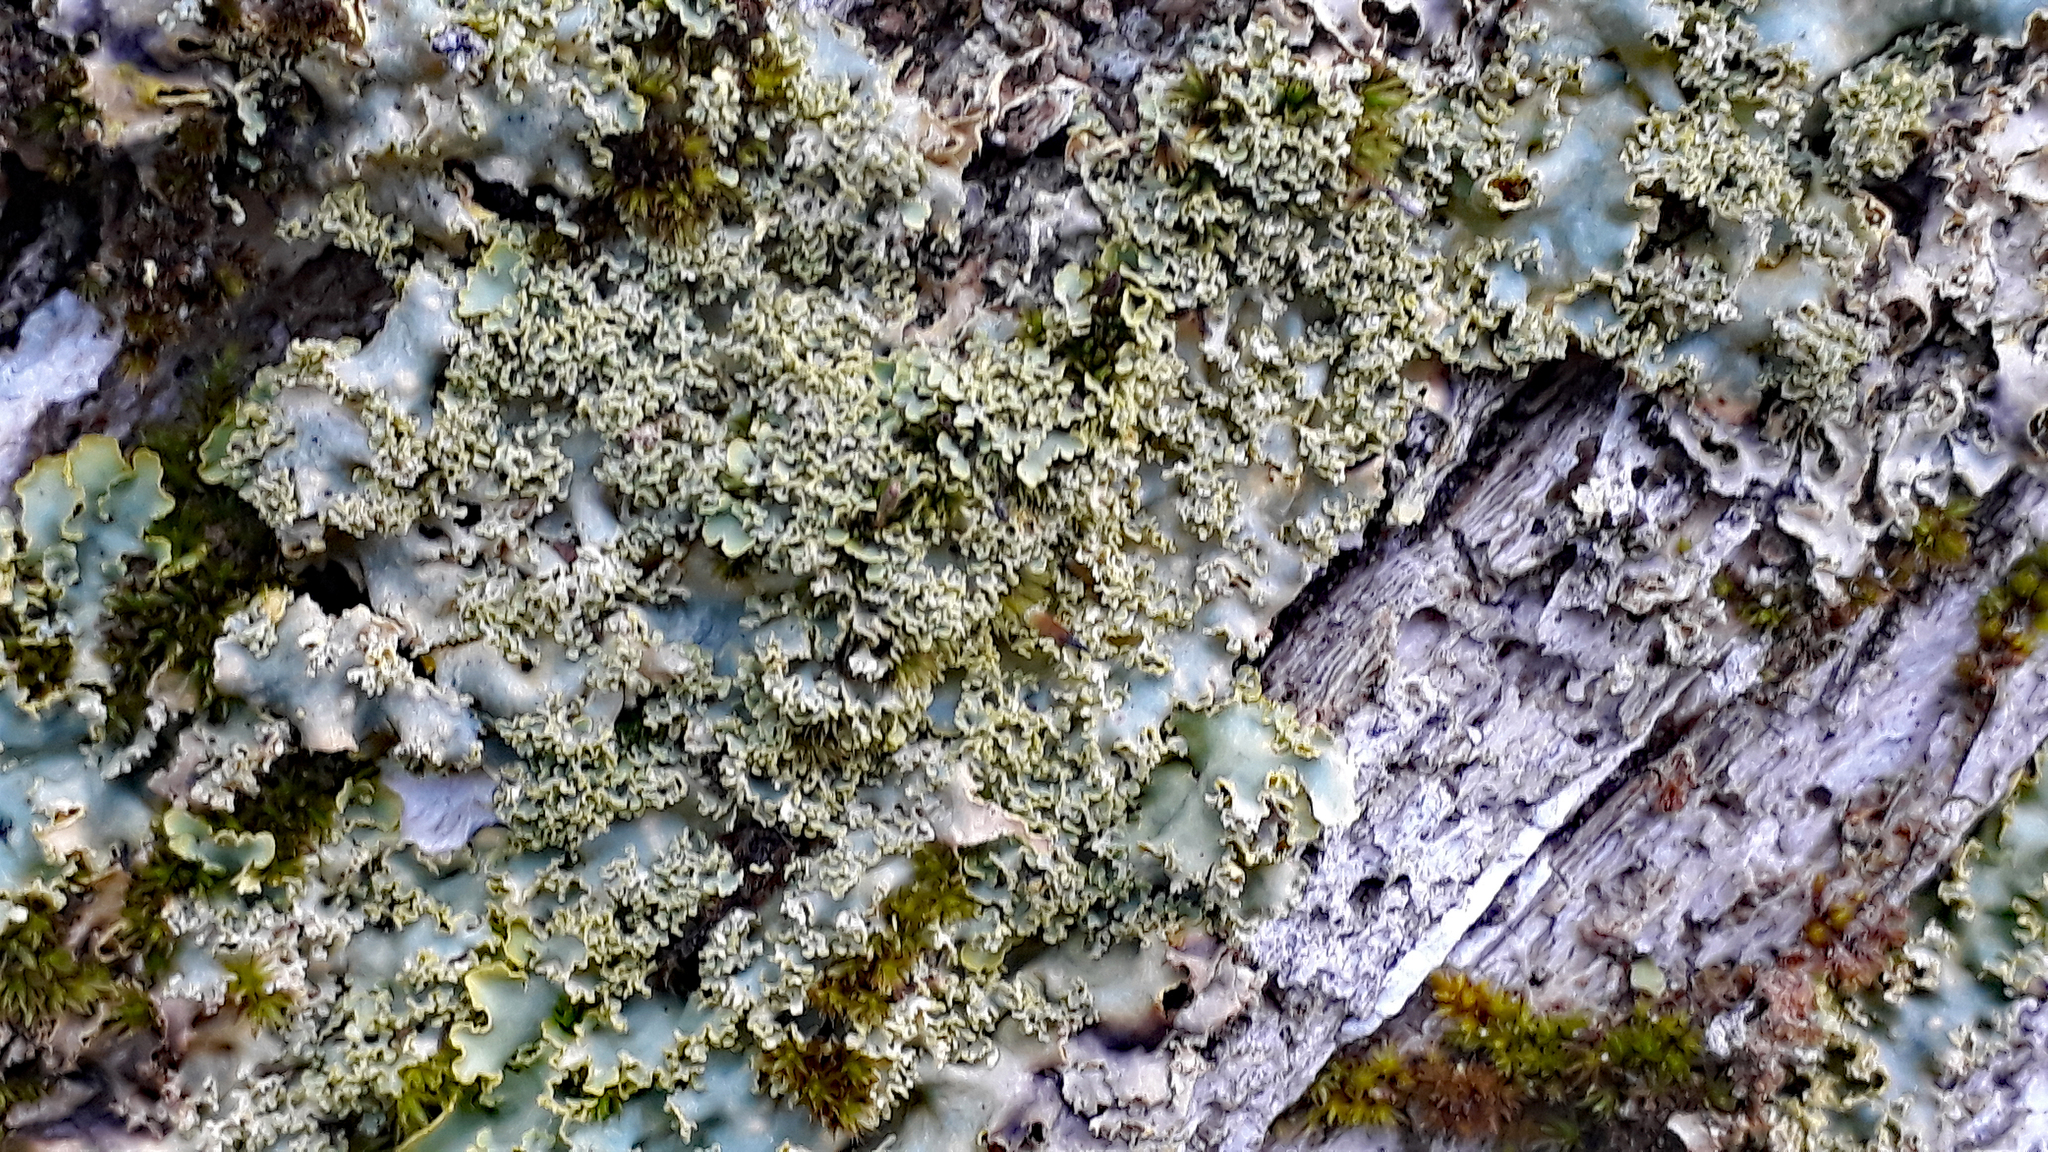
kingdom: Fungi
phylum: Ascomycota
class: Lecanoromycetes
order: Peltigerales
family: Lobariaceae
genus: Podostictina
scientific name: Podostictina pickeringii
